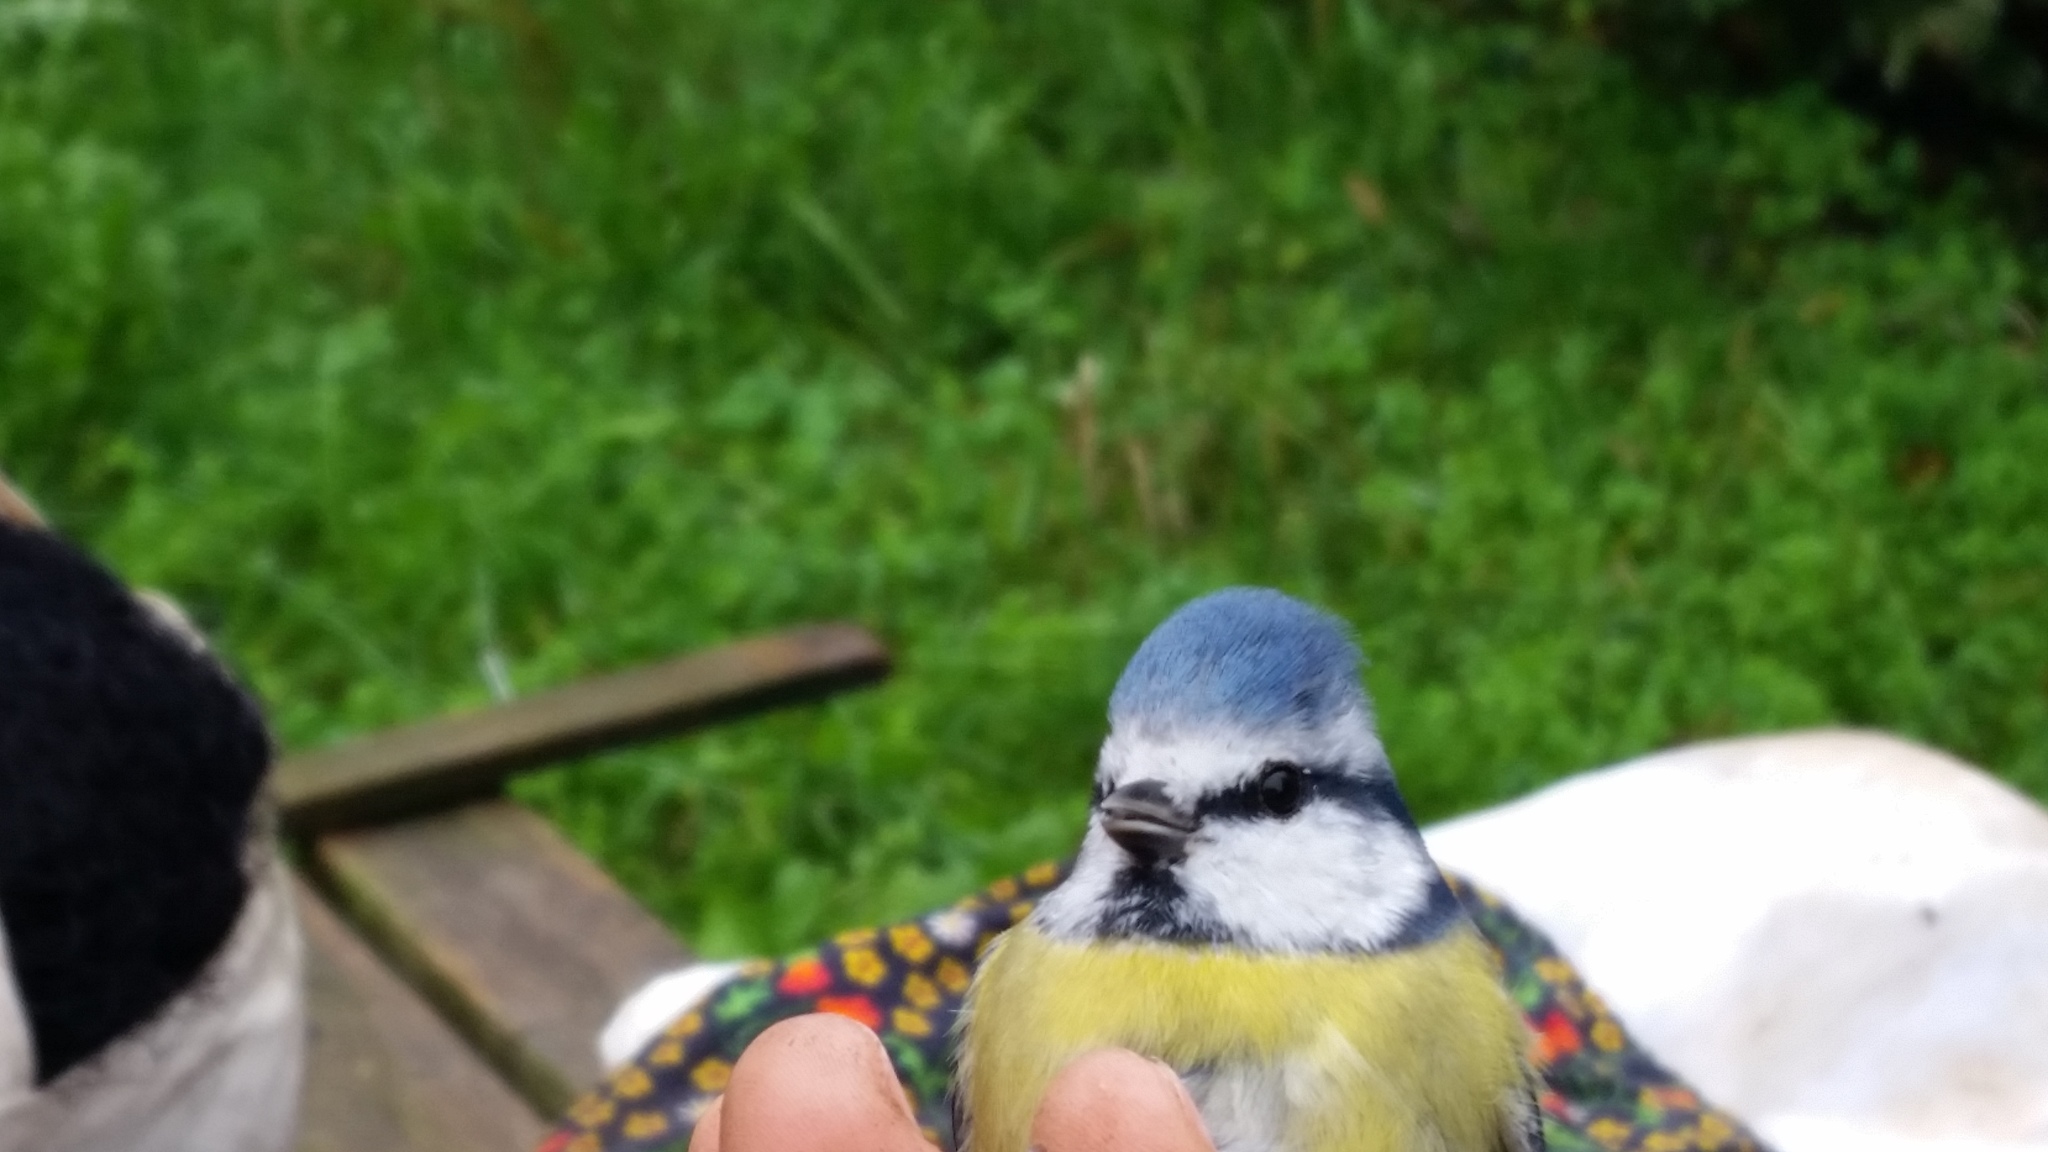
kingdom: Animalia
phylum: Chordata
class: Aves
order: Passeriformes
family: Paridae
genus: Cyanistes
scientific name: Cyanistes caeruleus
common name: Eurasian blue tit
